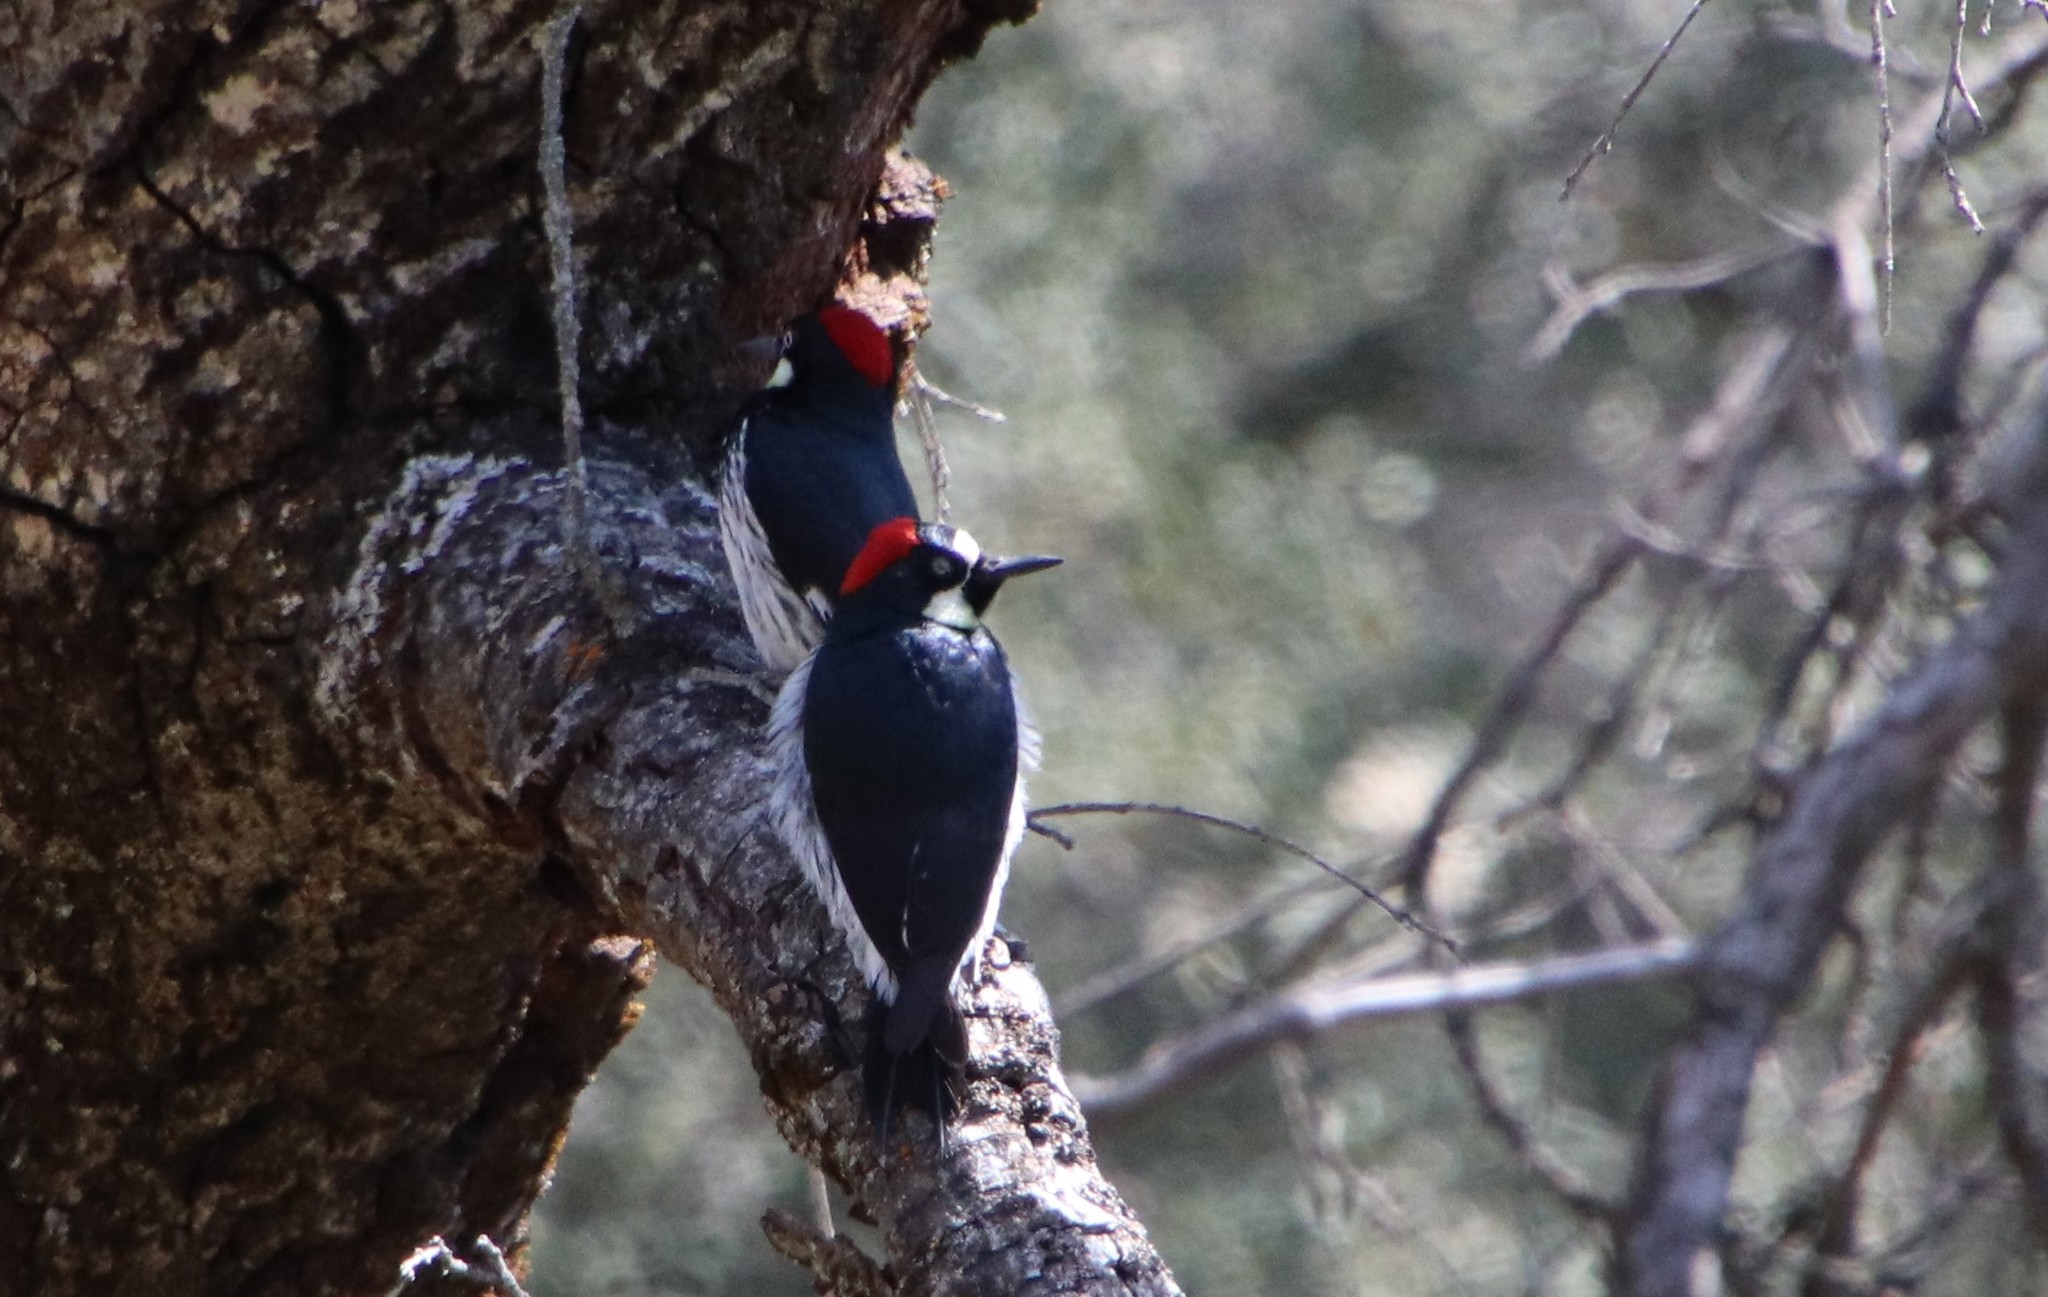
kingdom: Animalia
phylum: Chordata
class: Aves
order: Piciformes
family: Picidae
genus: Melanerpes
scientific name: Melanerpes formicivorus
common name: Acorn woodpecker
